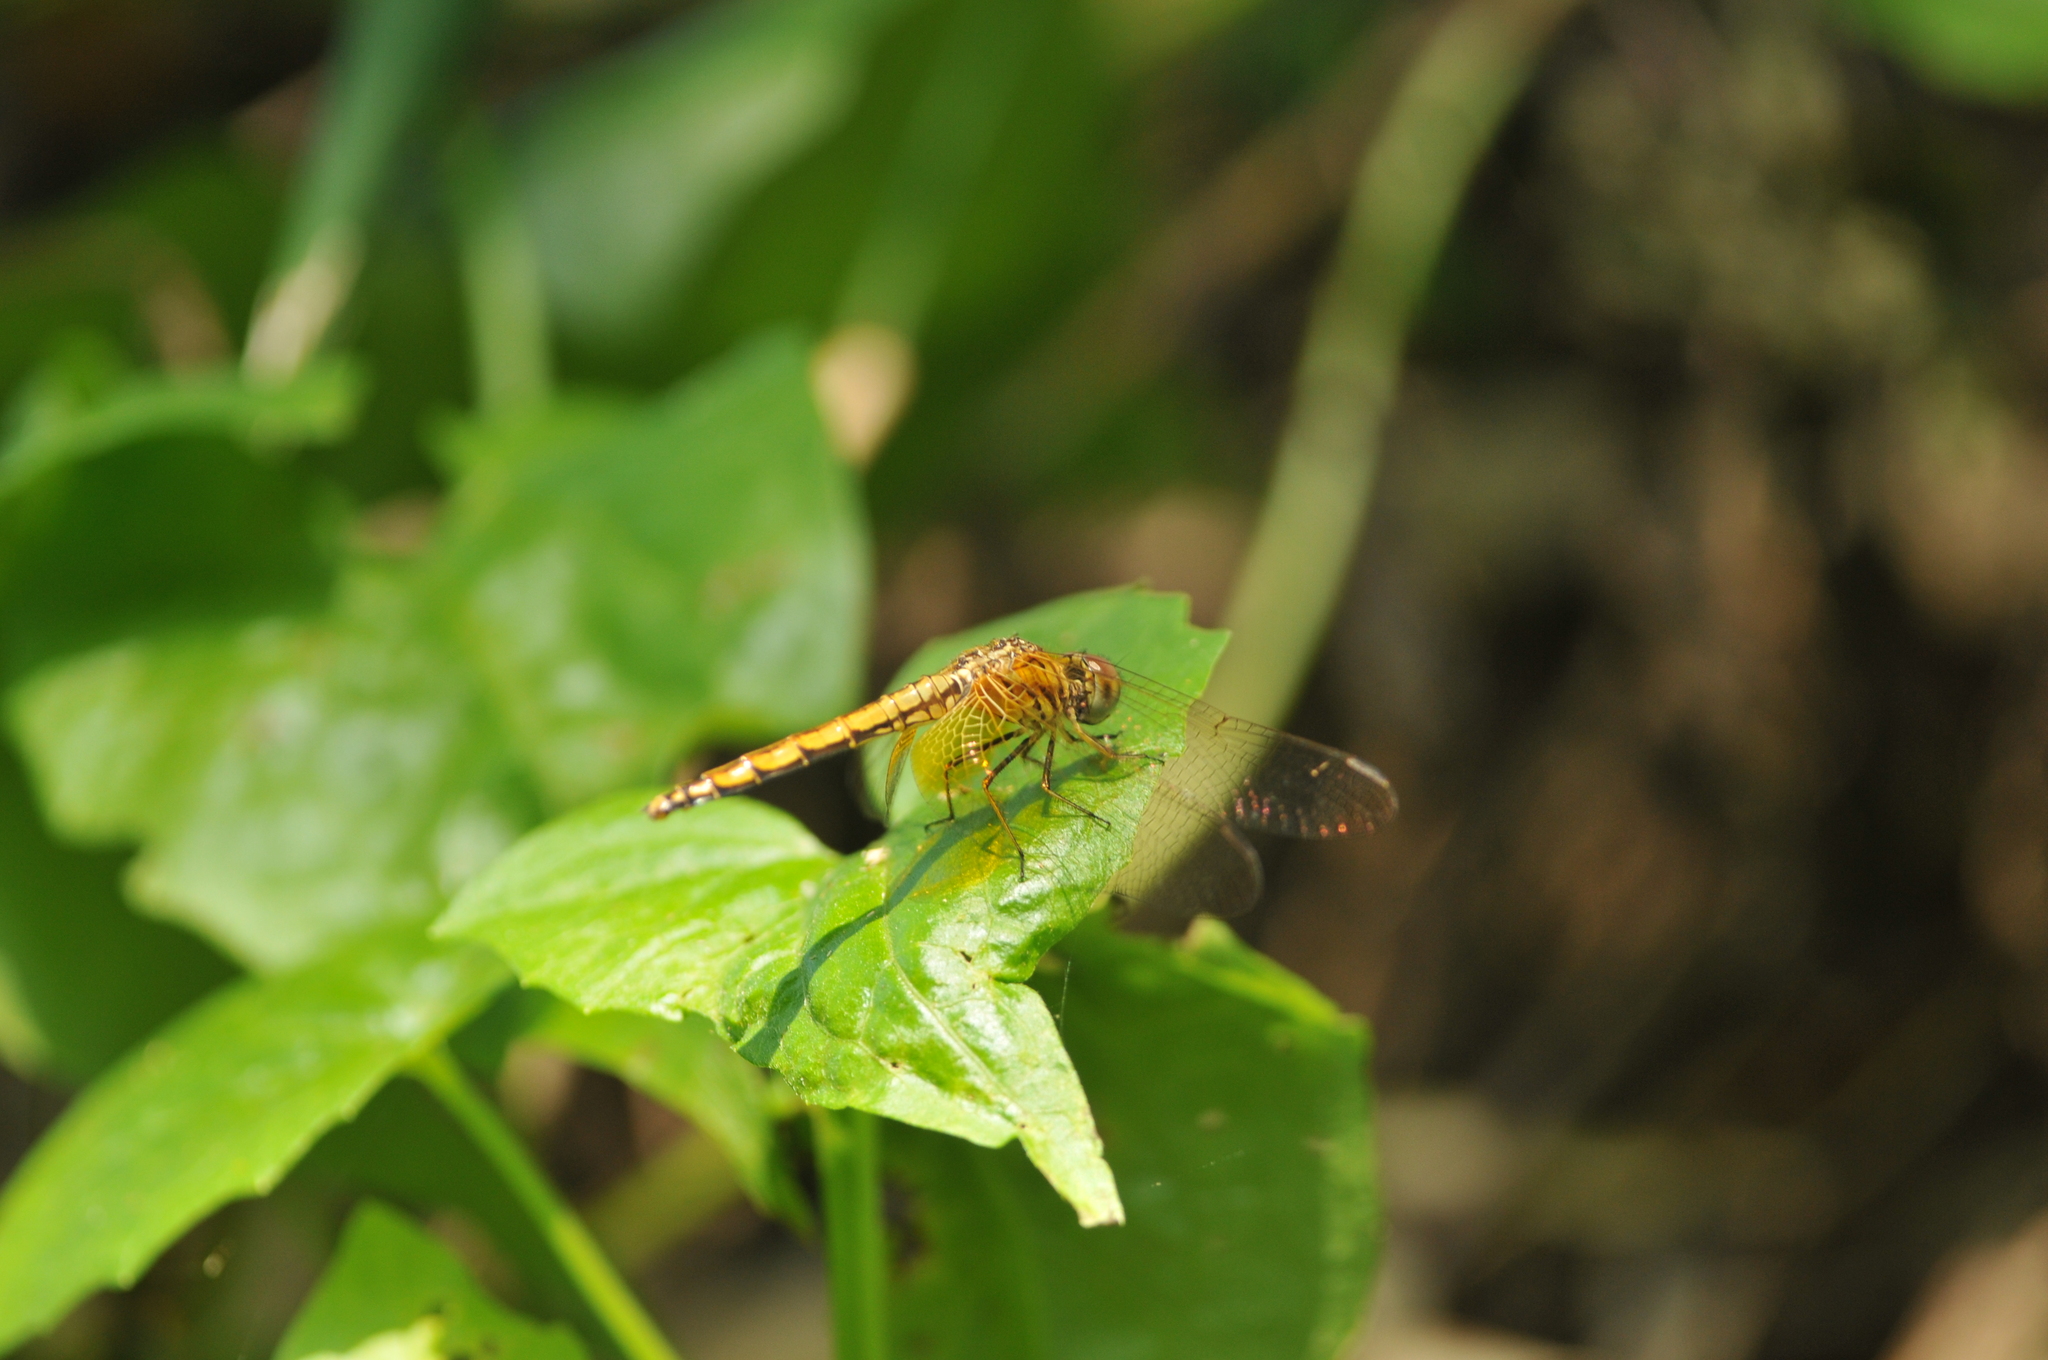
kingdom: Animalia
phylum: Arthropoda
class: Insecta
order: Odonata
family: Libellulidae
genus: Trithemis
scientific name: Trithemis aurora
